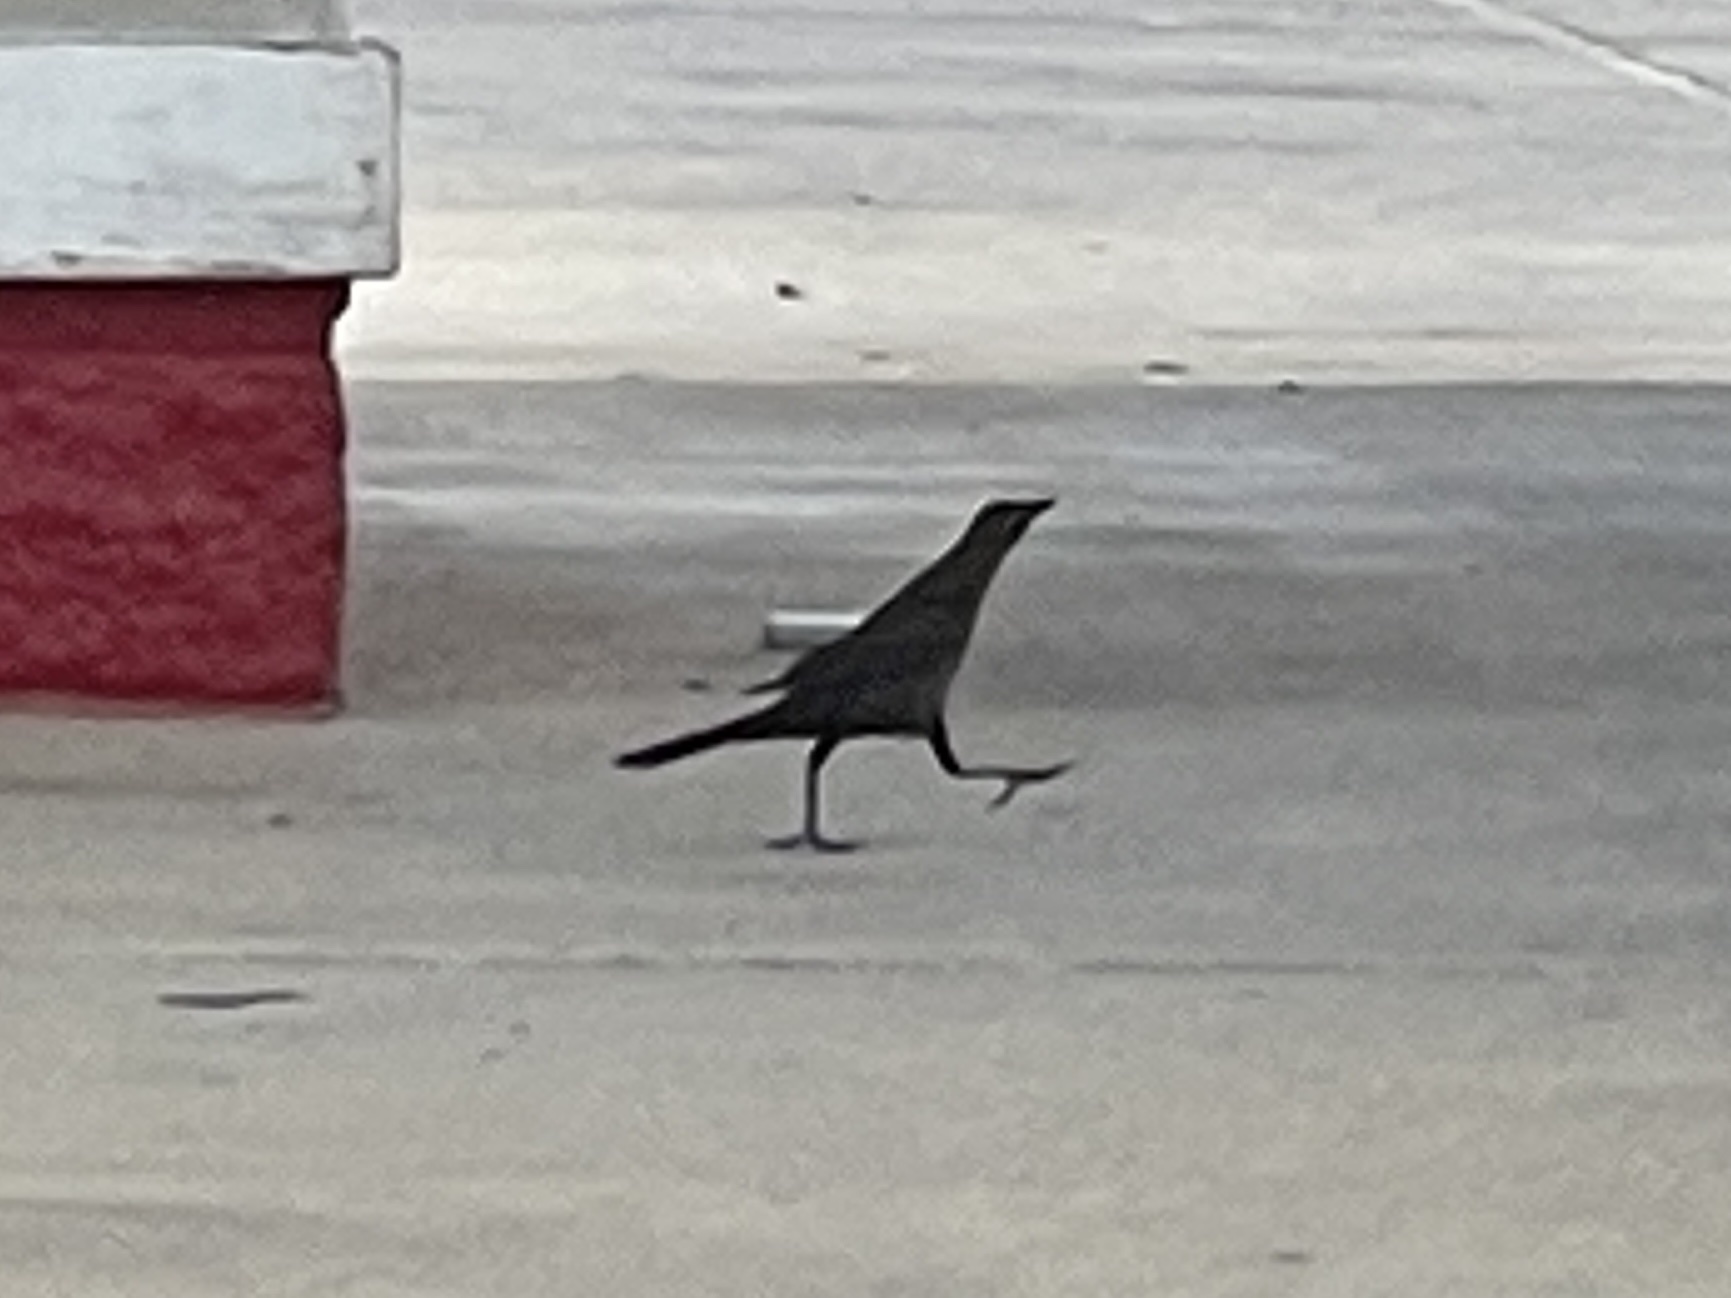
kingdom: Animalia
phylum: Chordata
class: Aves
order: Passeriformes
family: Icteridae
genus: Quiscalus
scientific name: Quiscalus mexicanus
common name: Great-tailed grackle
